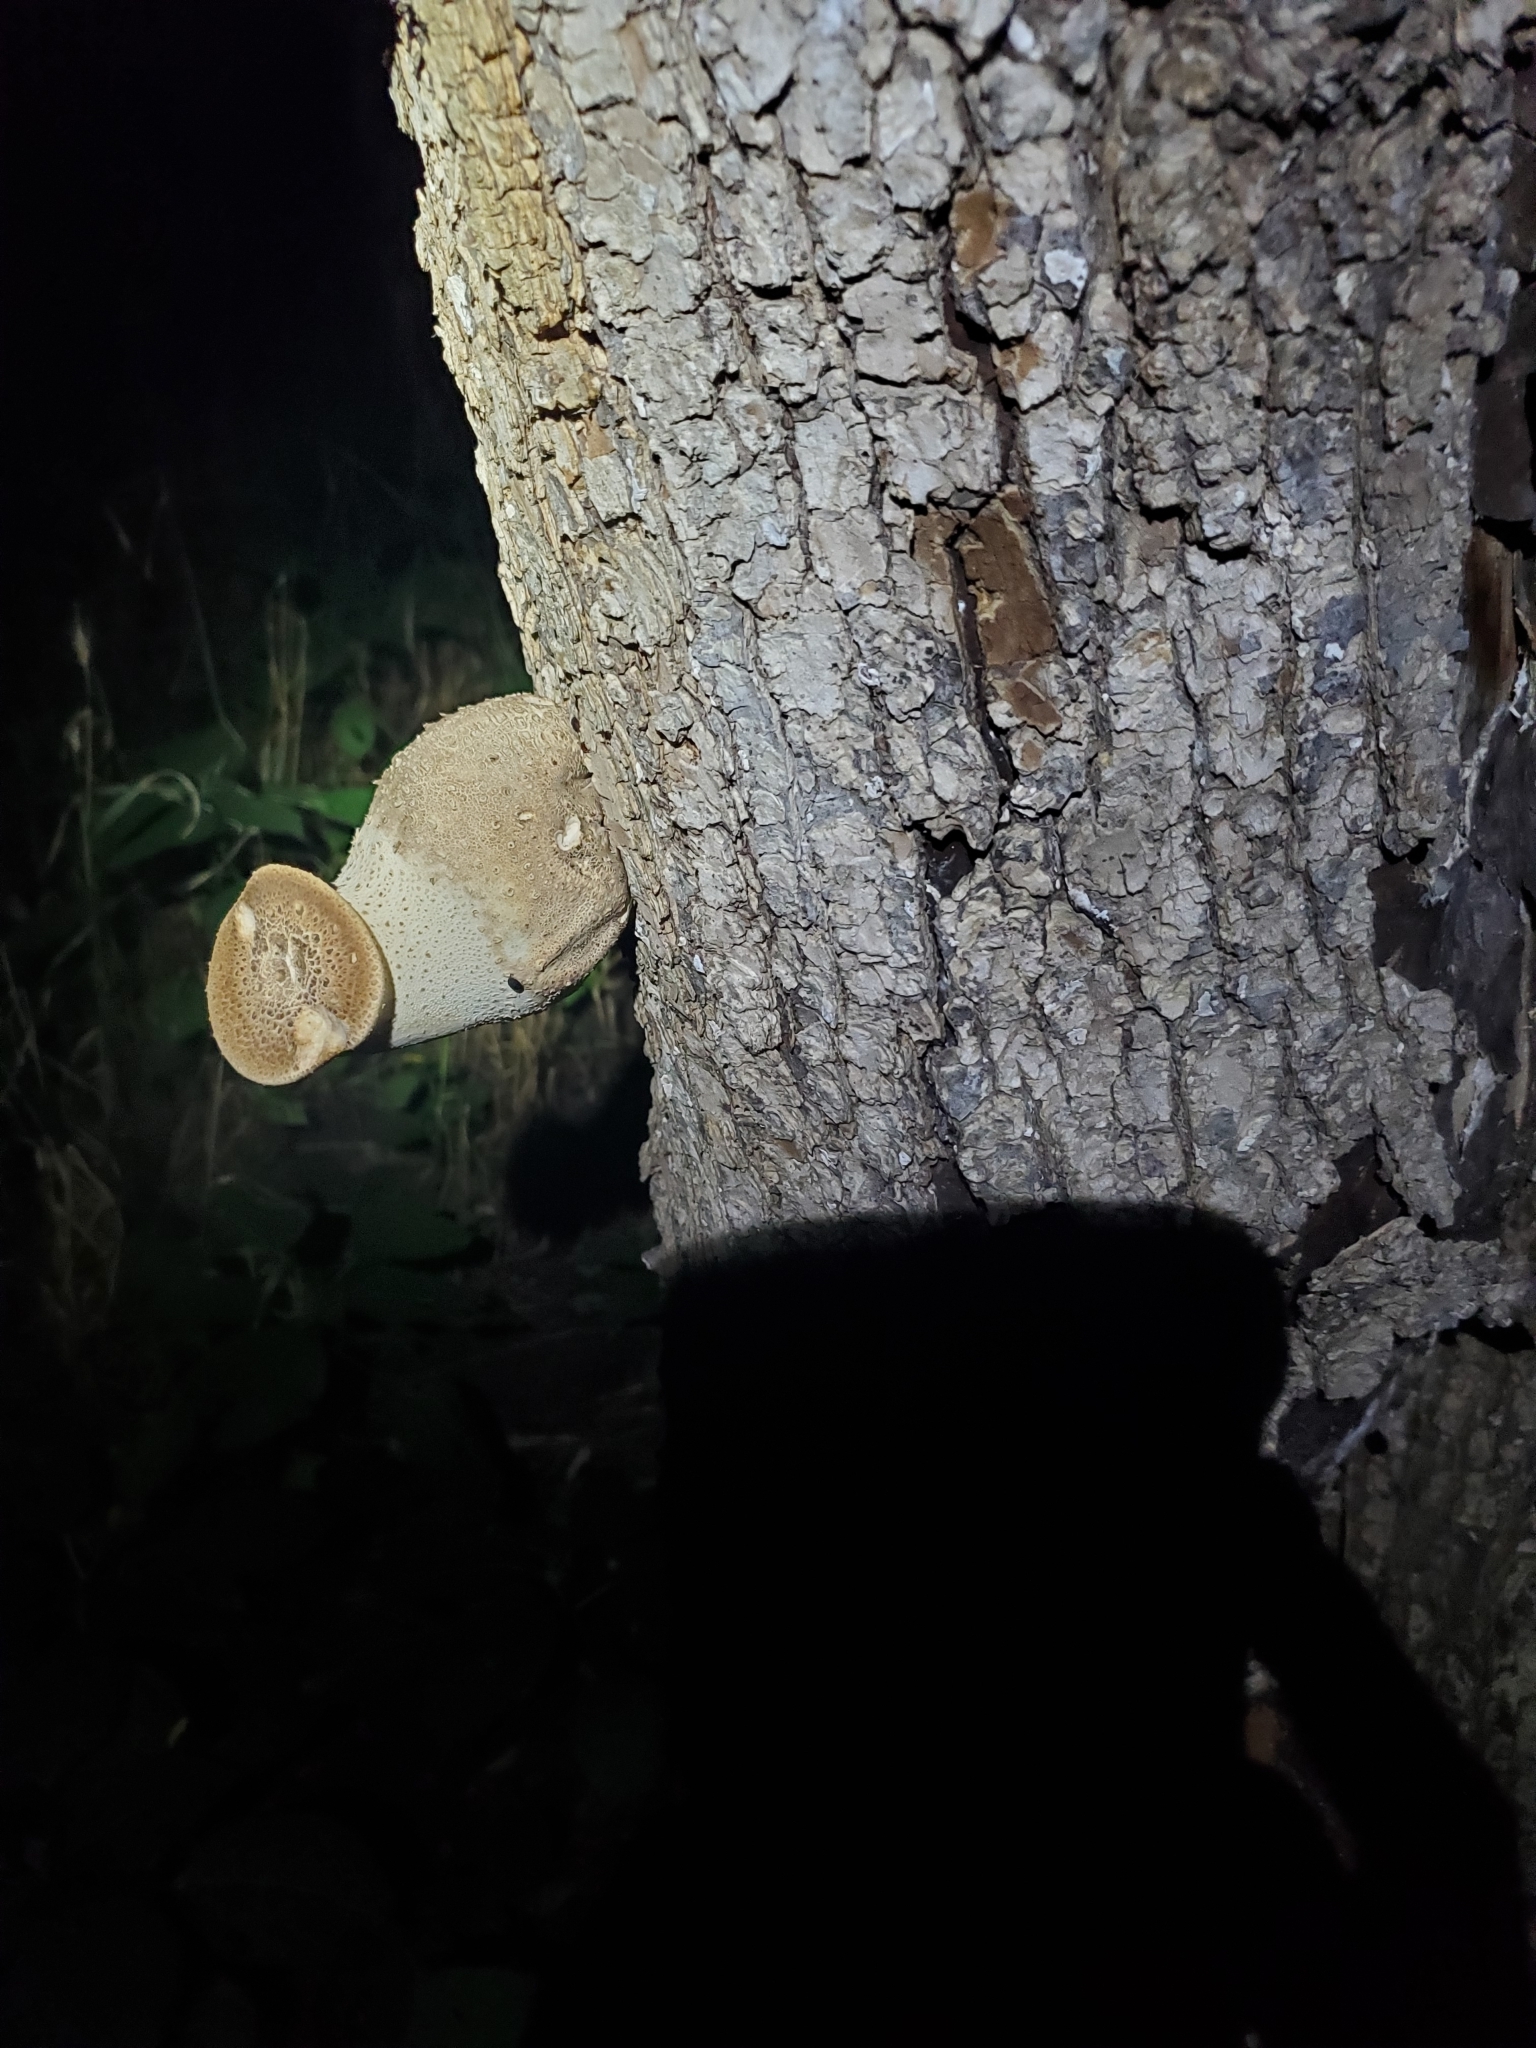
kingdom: Fungi
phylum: Basidiomycota
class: Agaricomycetes
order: Polyporales
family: Polyporaceae
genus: Cerioporus
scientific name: Cerioporus squamosus
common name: Dryad's saddle
